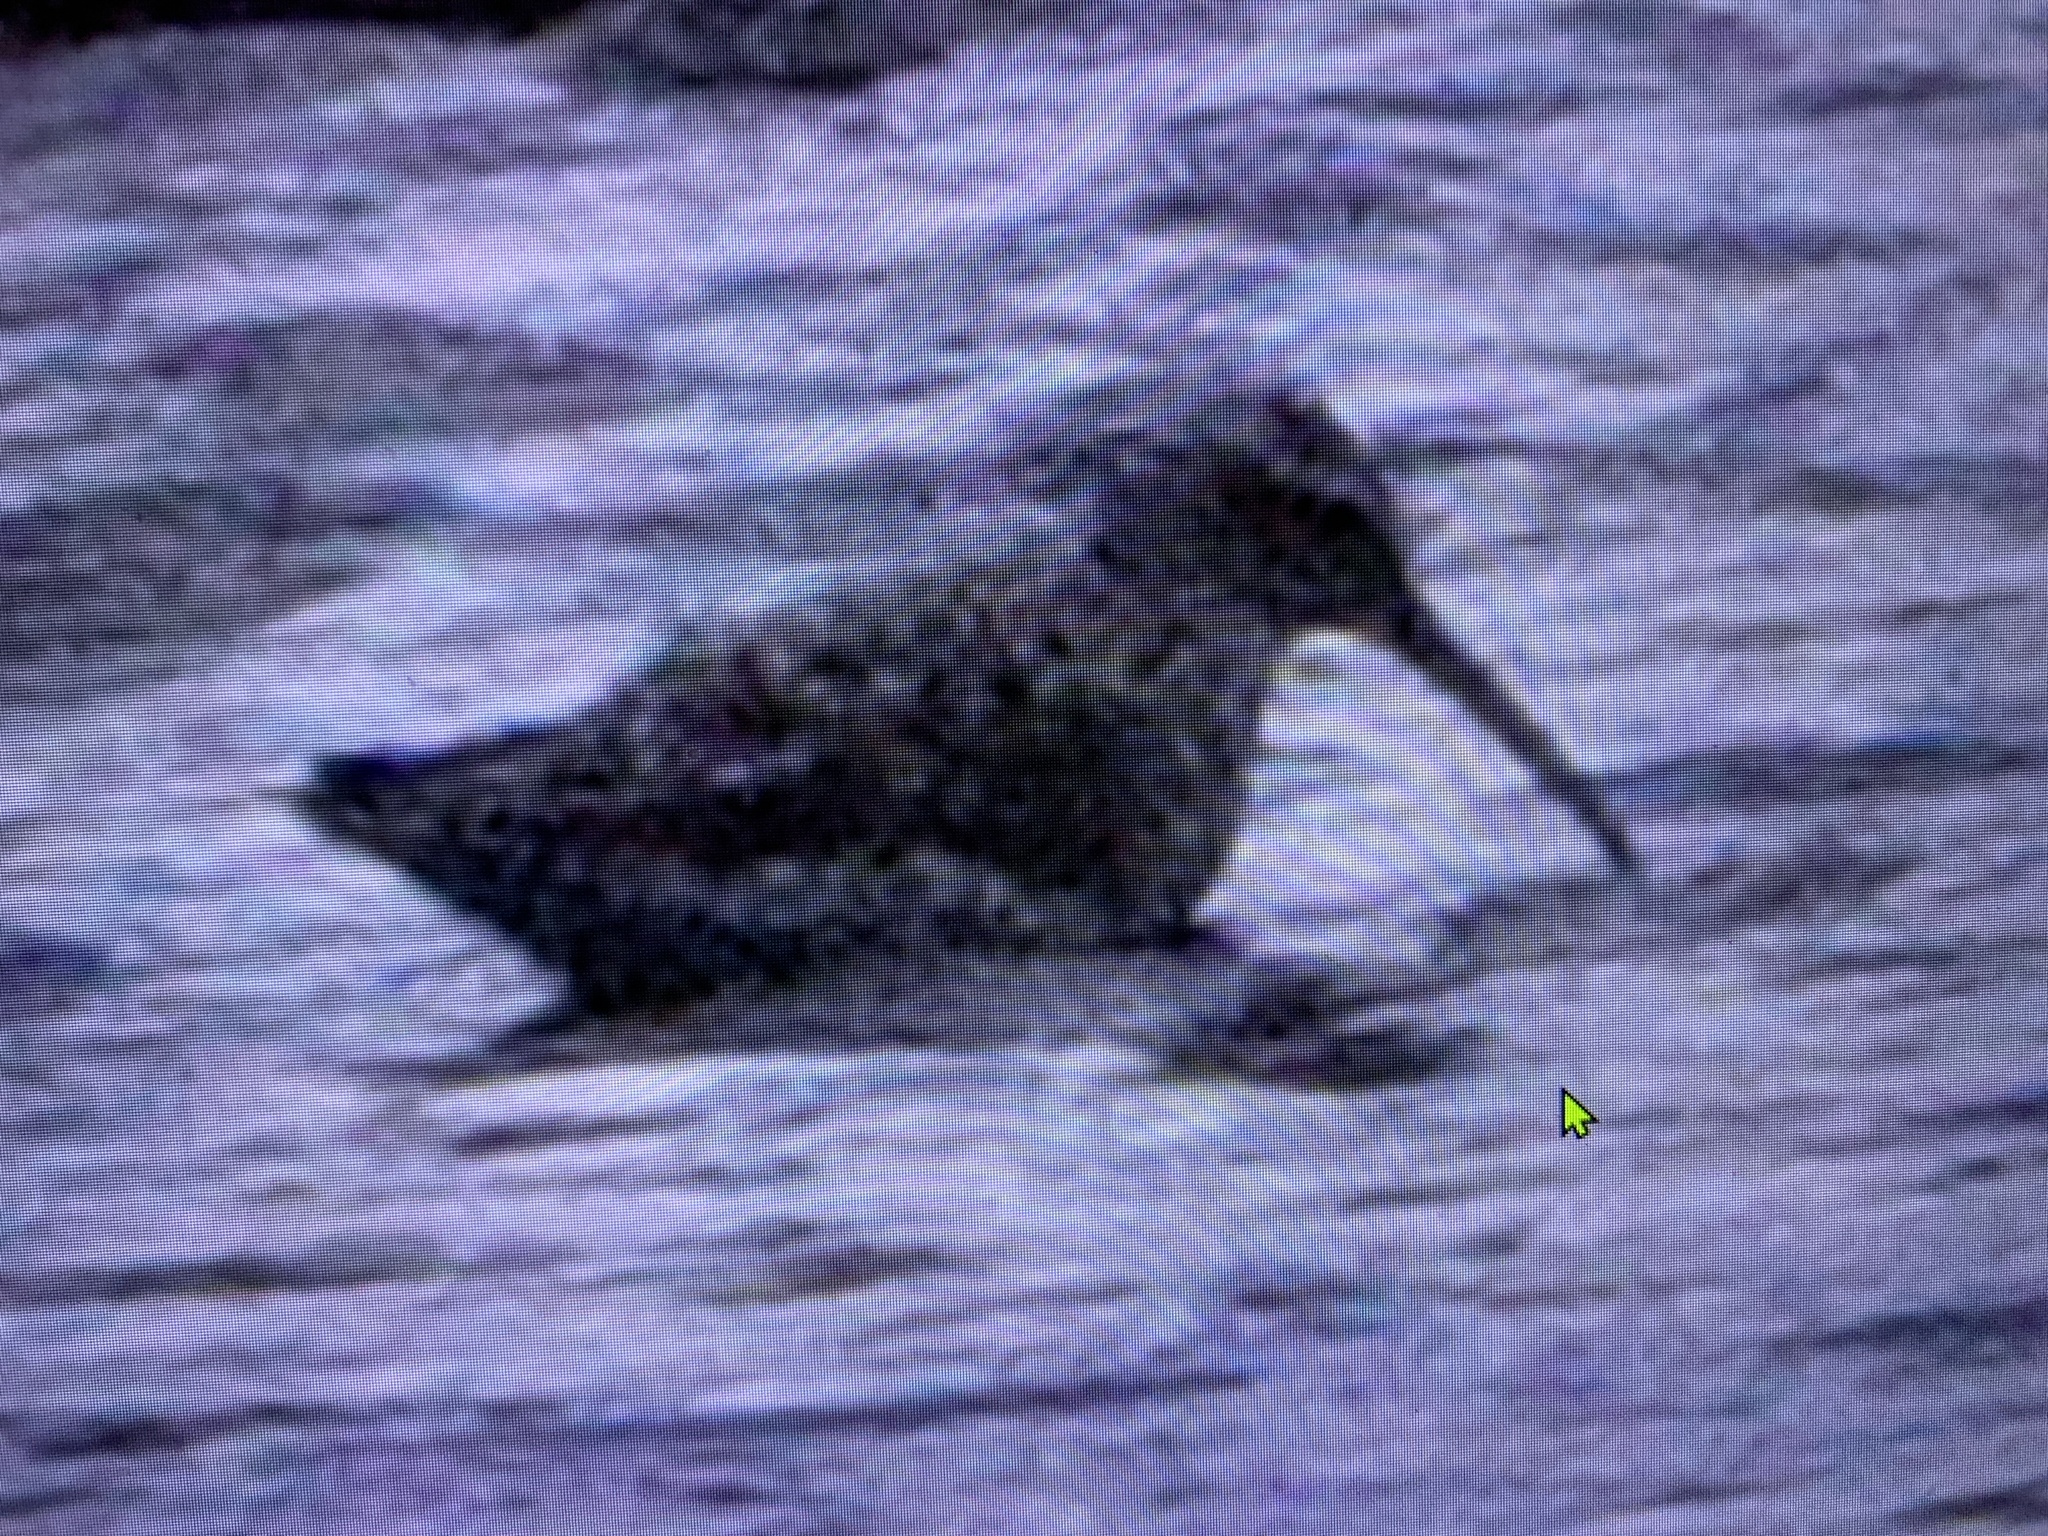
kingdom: Animalia
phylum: Chordata
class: Aves
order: Charadriiformes
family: Scolopacidae
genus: Calidris
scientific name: Calidris himantopus
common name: Stilt sandpiper
